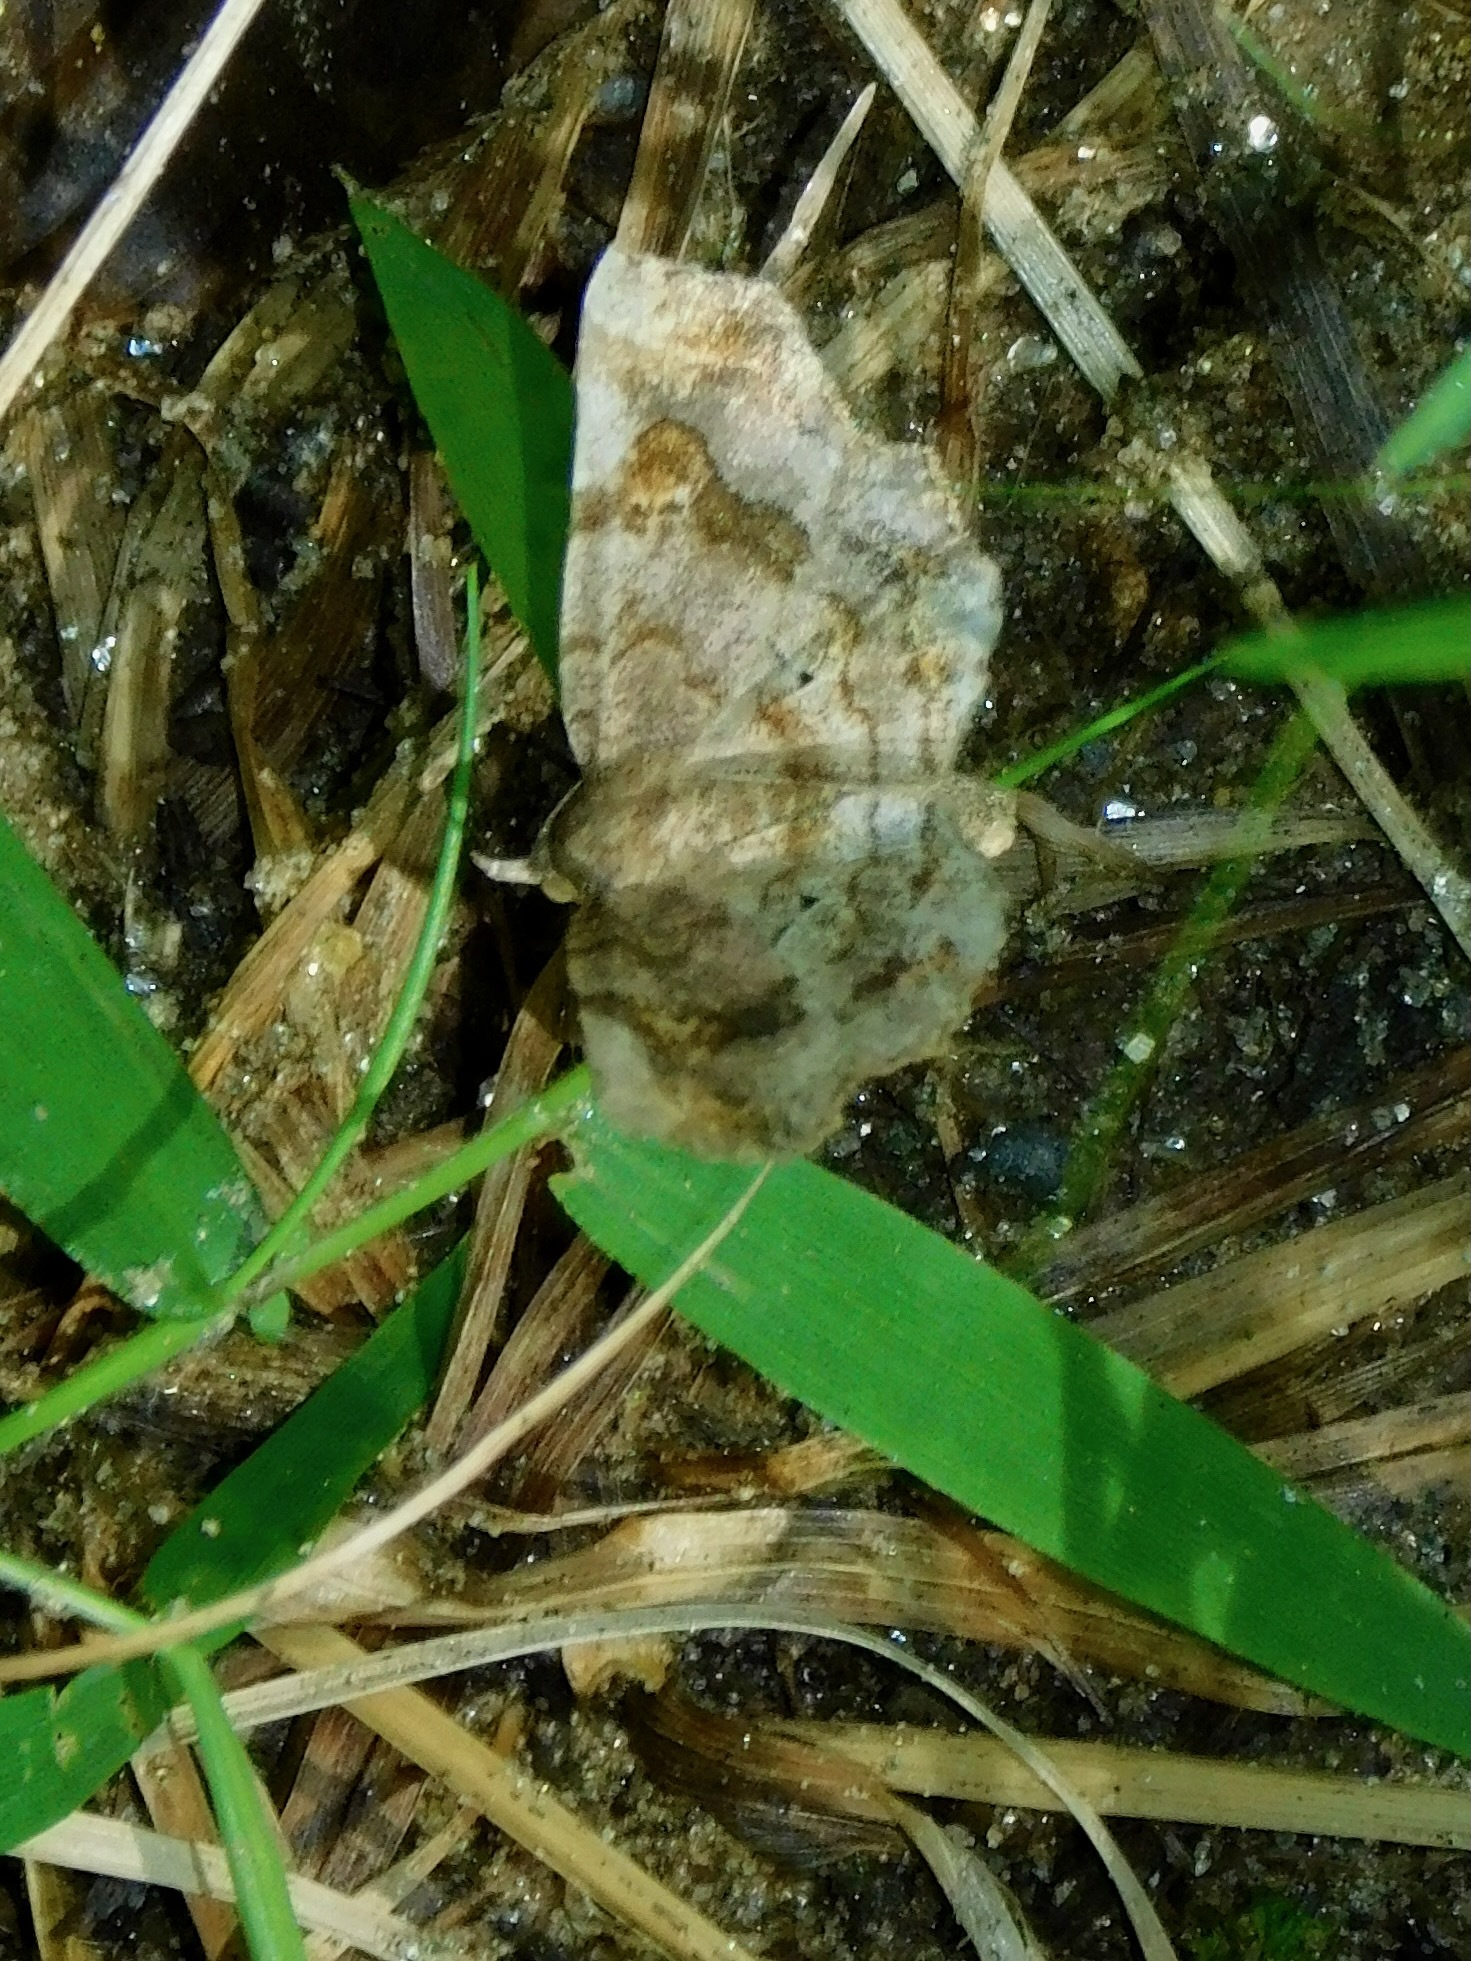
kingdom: Animalia
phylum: Arthropoda
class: Insecta
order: Lepidoptera
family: Erebidae
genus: Pangrapta
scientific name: Pangrapta decoralis
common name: Decorated owlet
